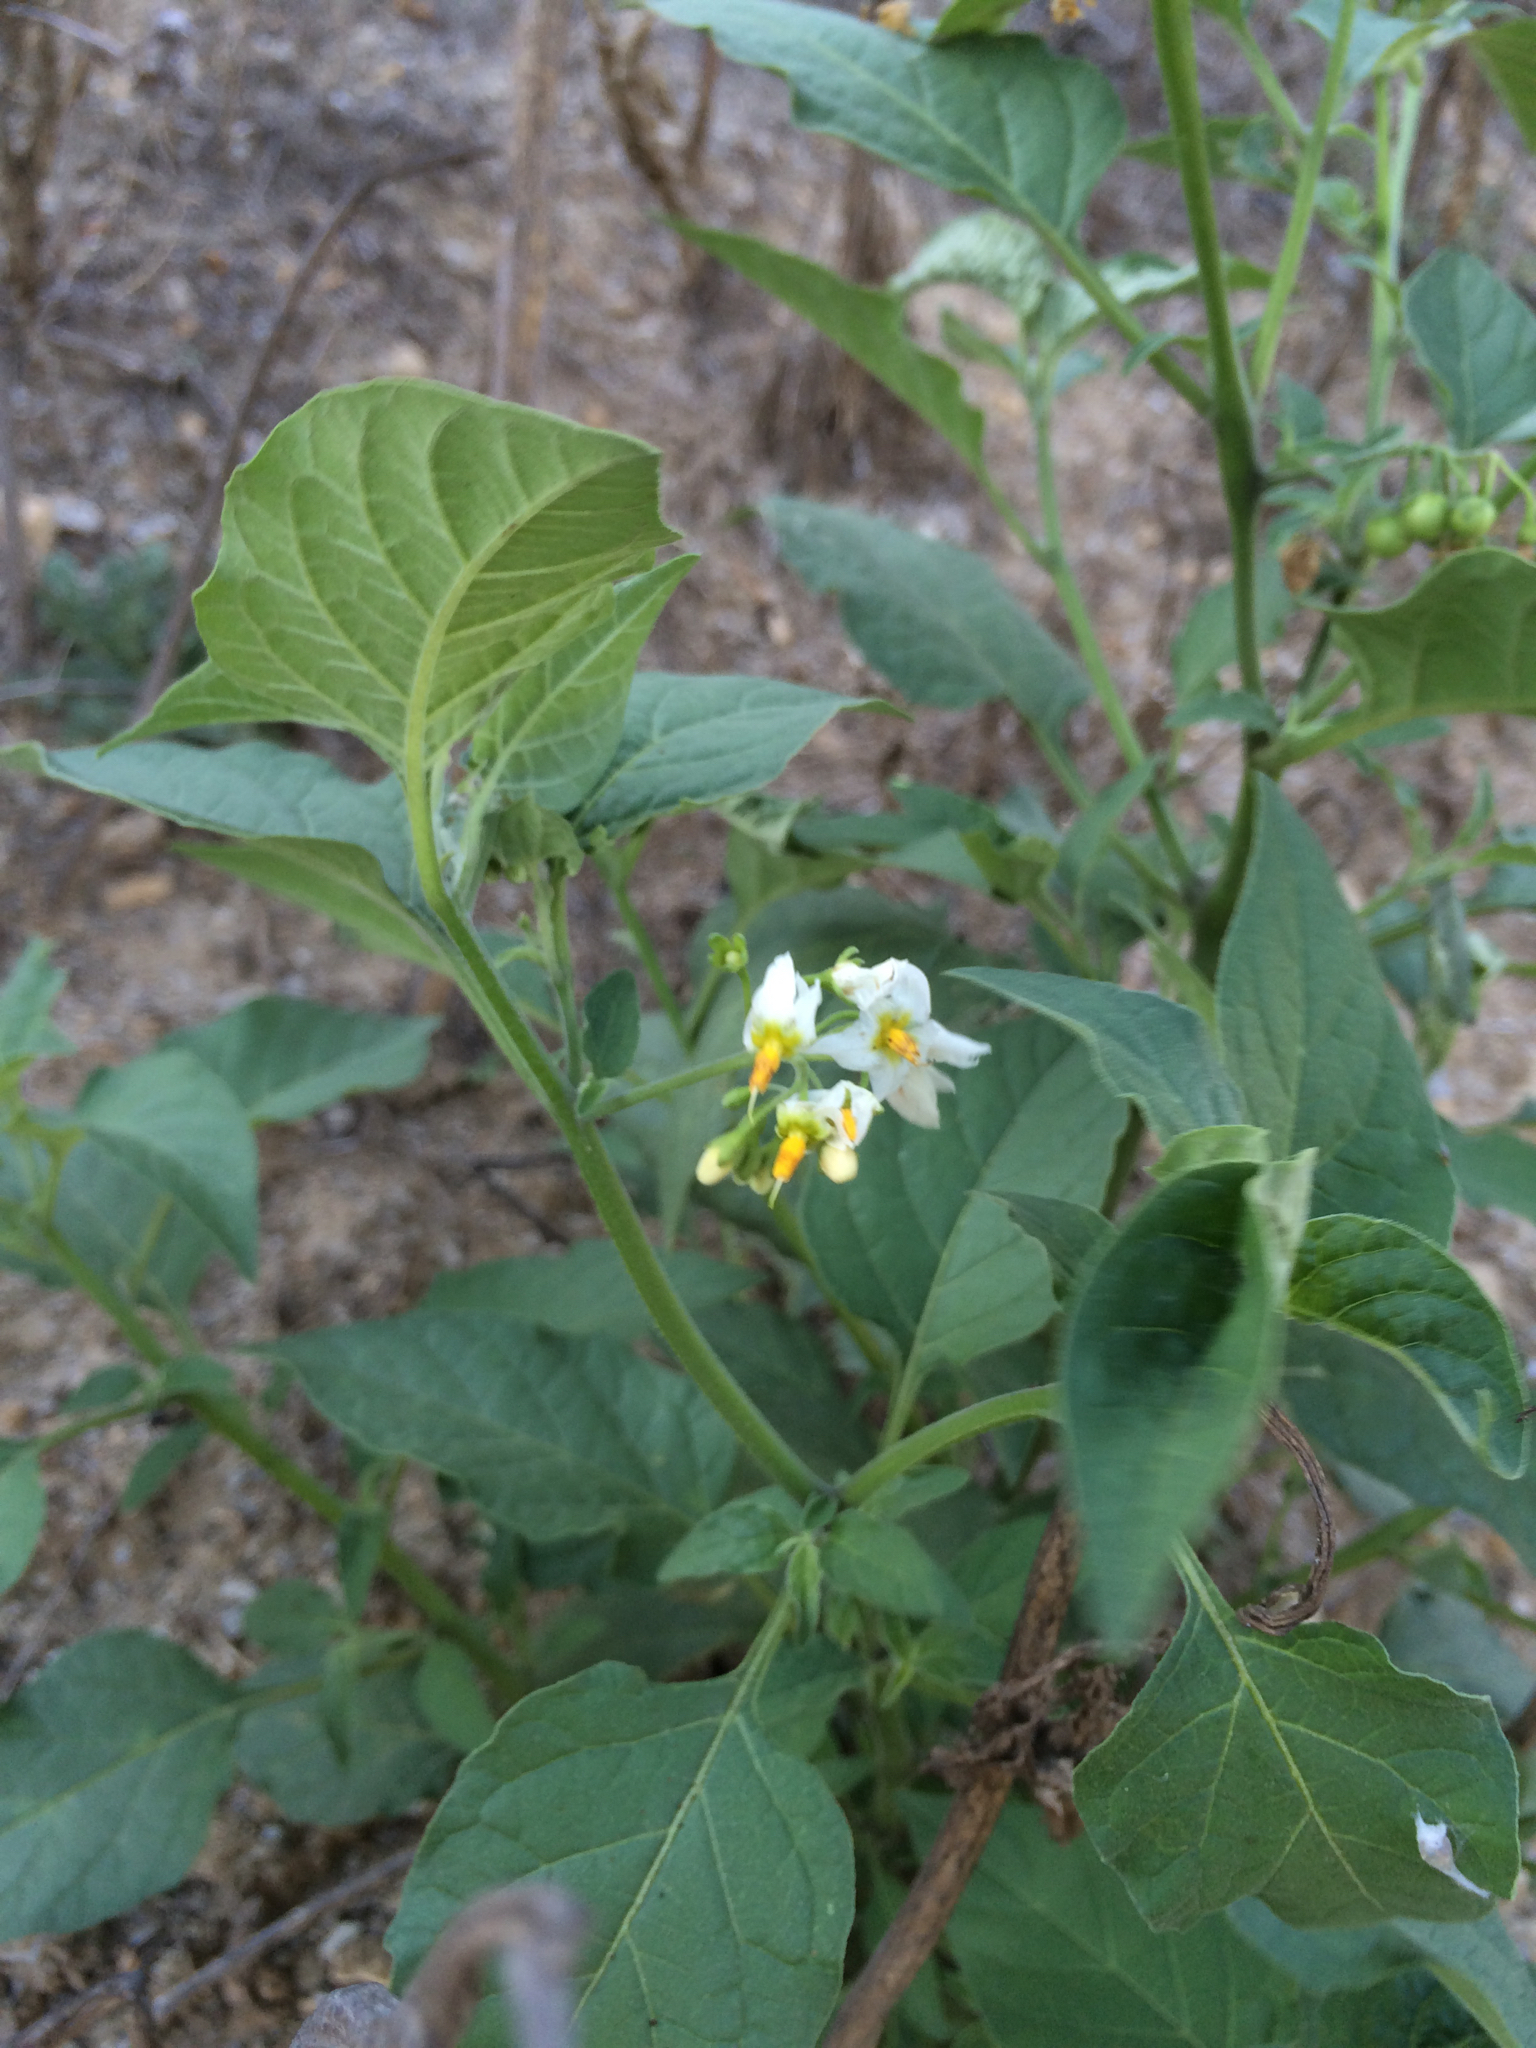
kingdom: Plantae
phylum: Tracheophyta
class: Magnoliopsida
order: Solanales
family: Solanaceae
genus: Solanum
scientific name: Solanum douglasii
